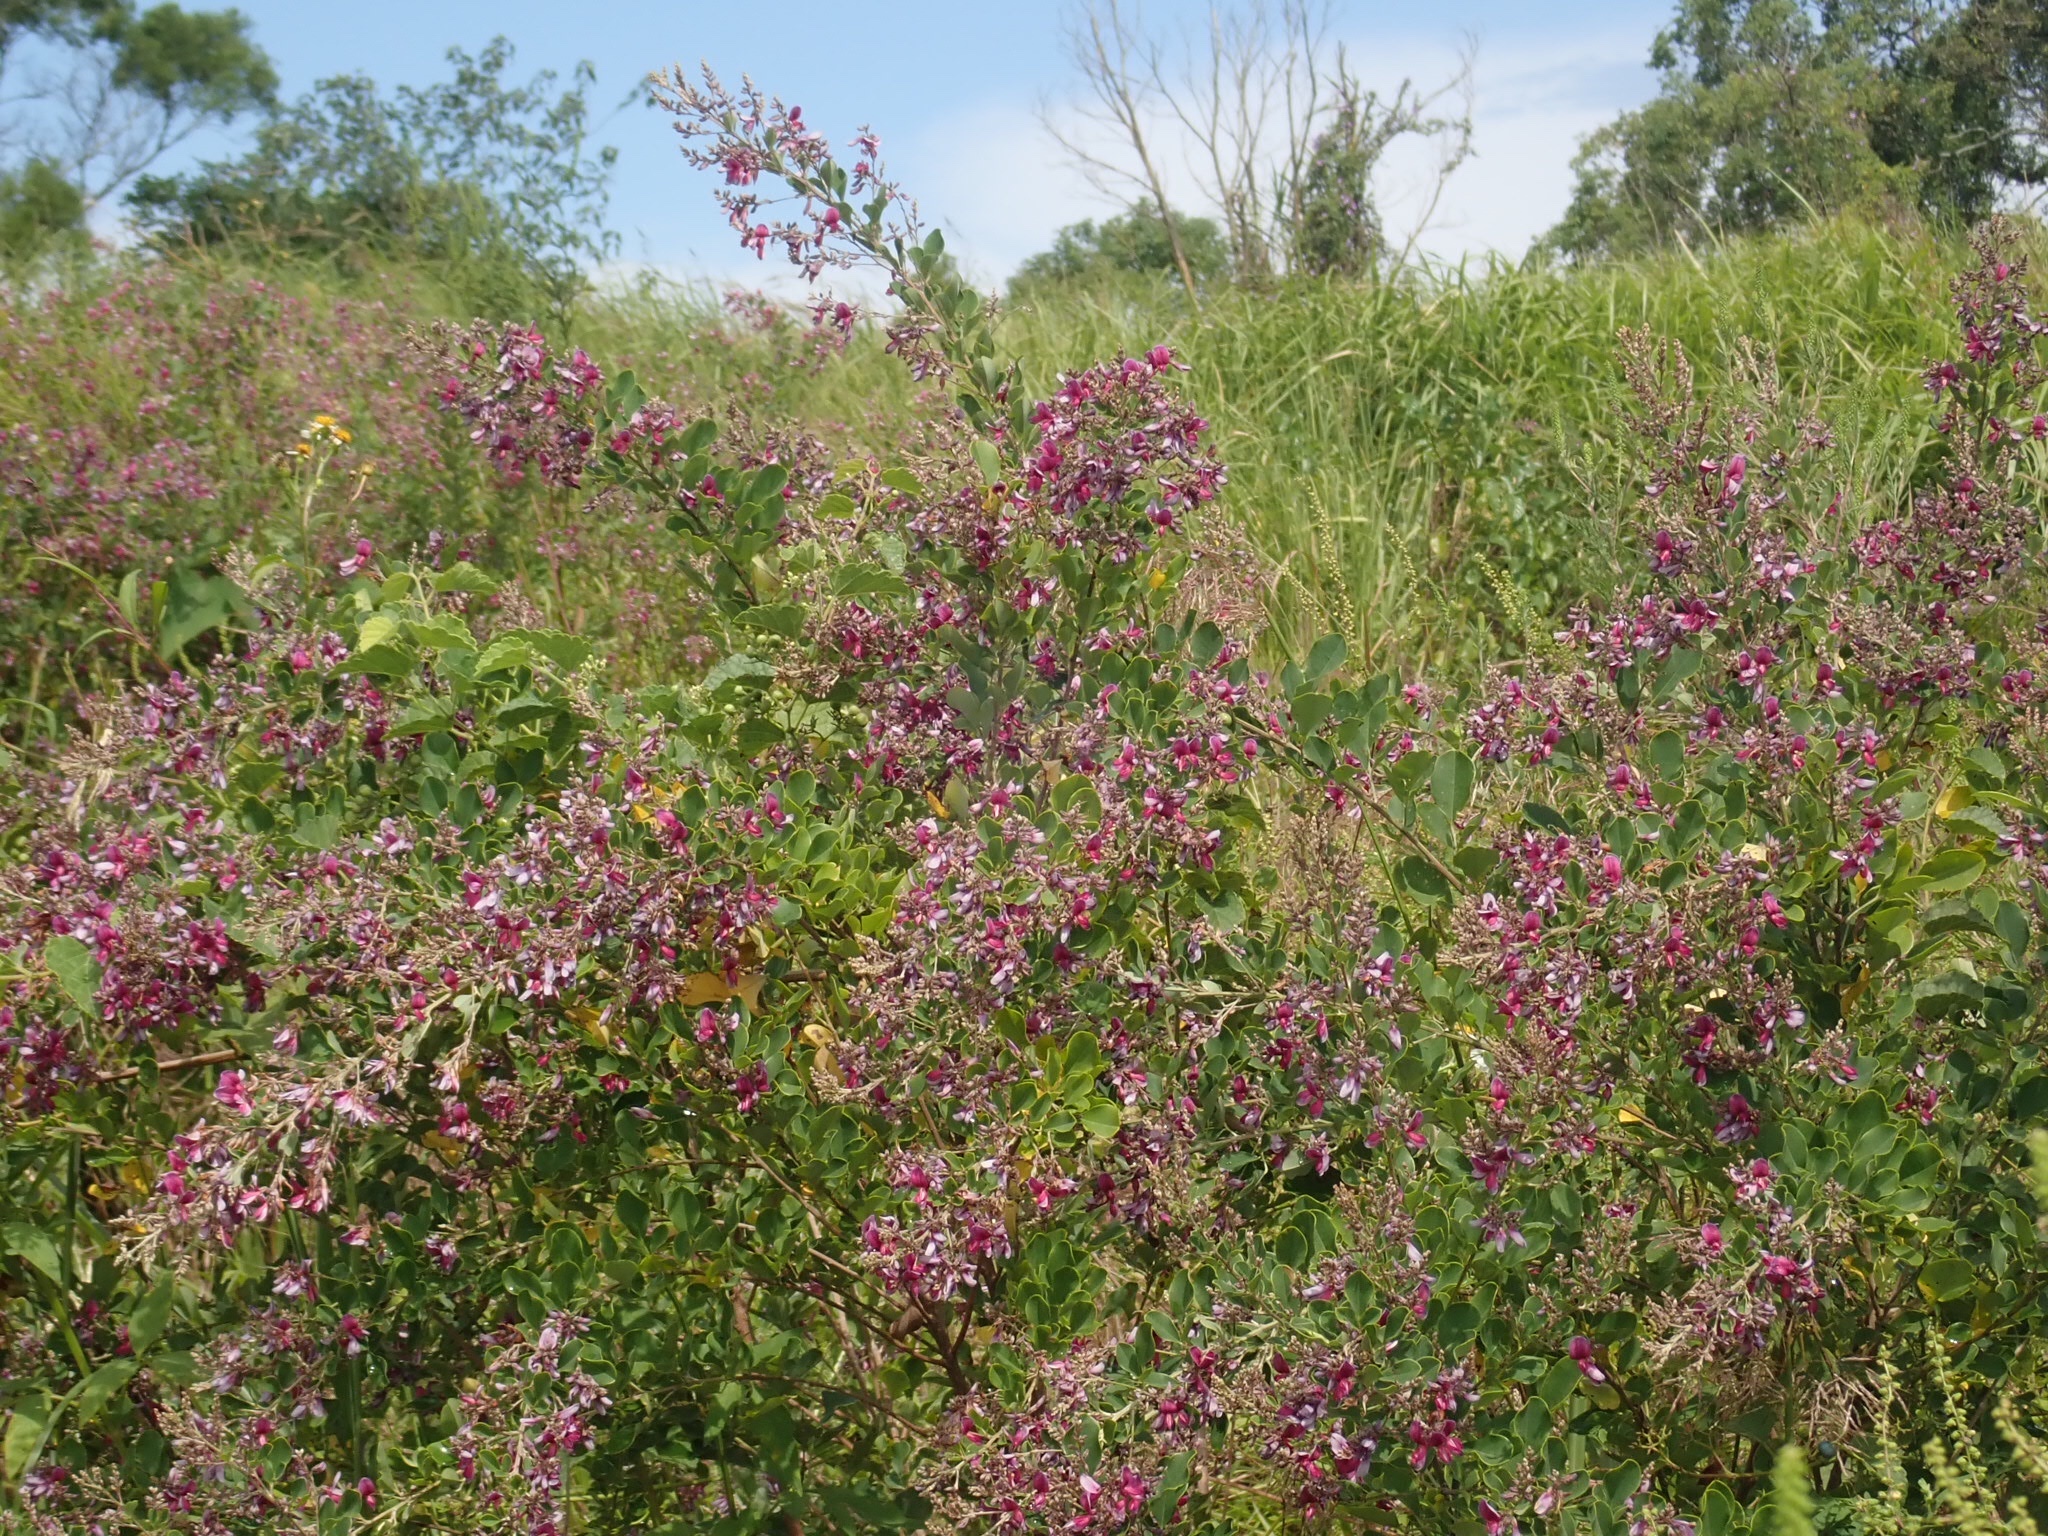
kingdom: Plantae
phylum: Tracheophyta
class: Magnoliopsida
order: Fabales
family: Fabaceae
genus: Lespedeza
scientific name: Lespedeza thunbergii
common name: Thunberg's lespedeza
